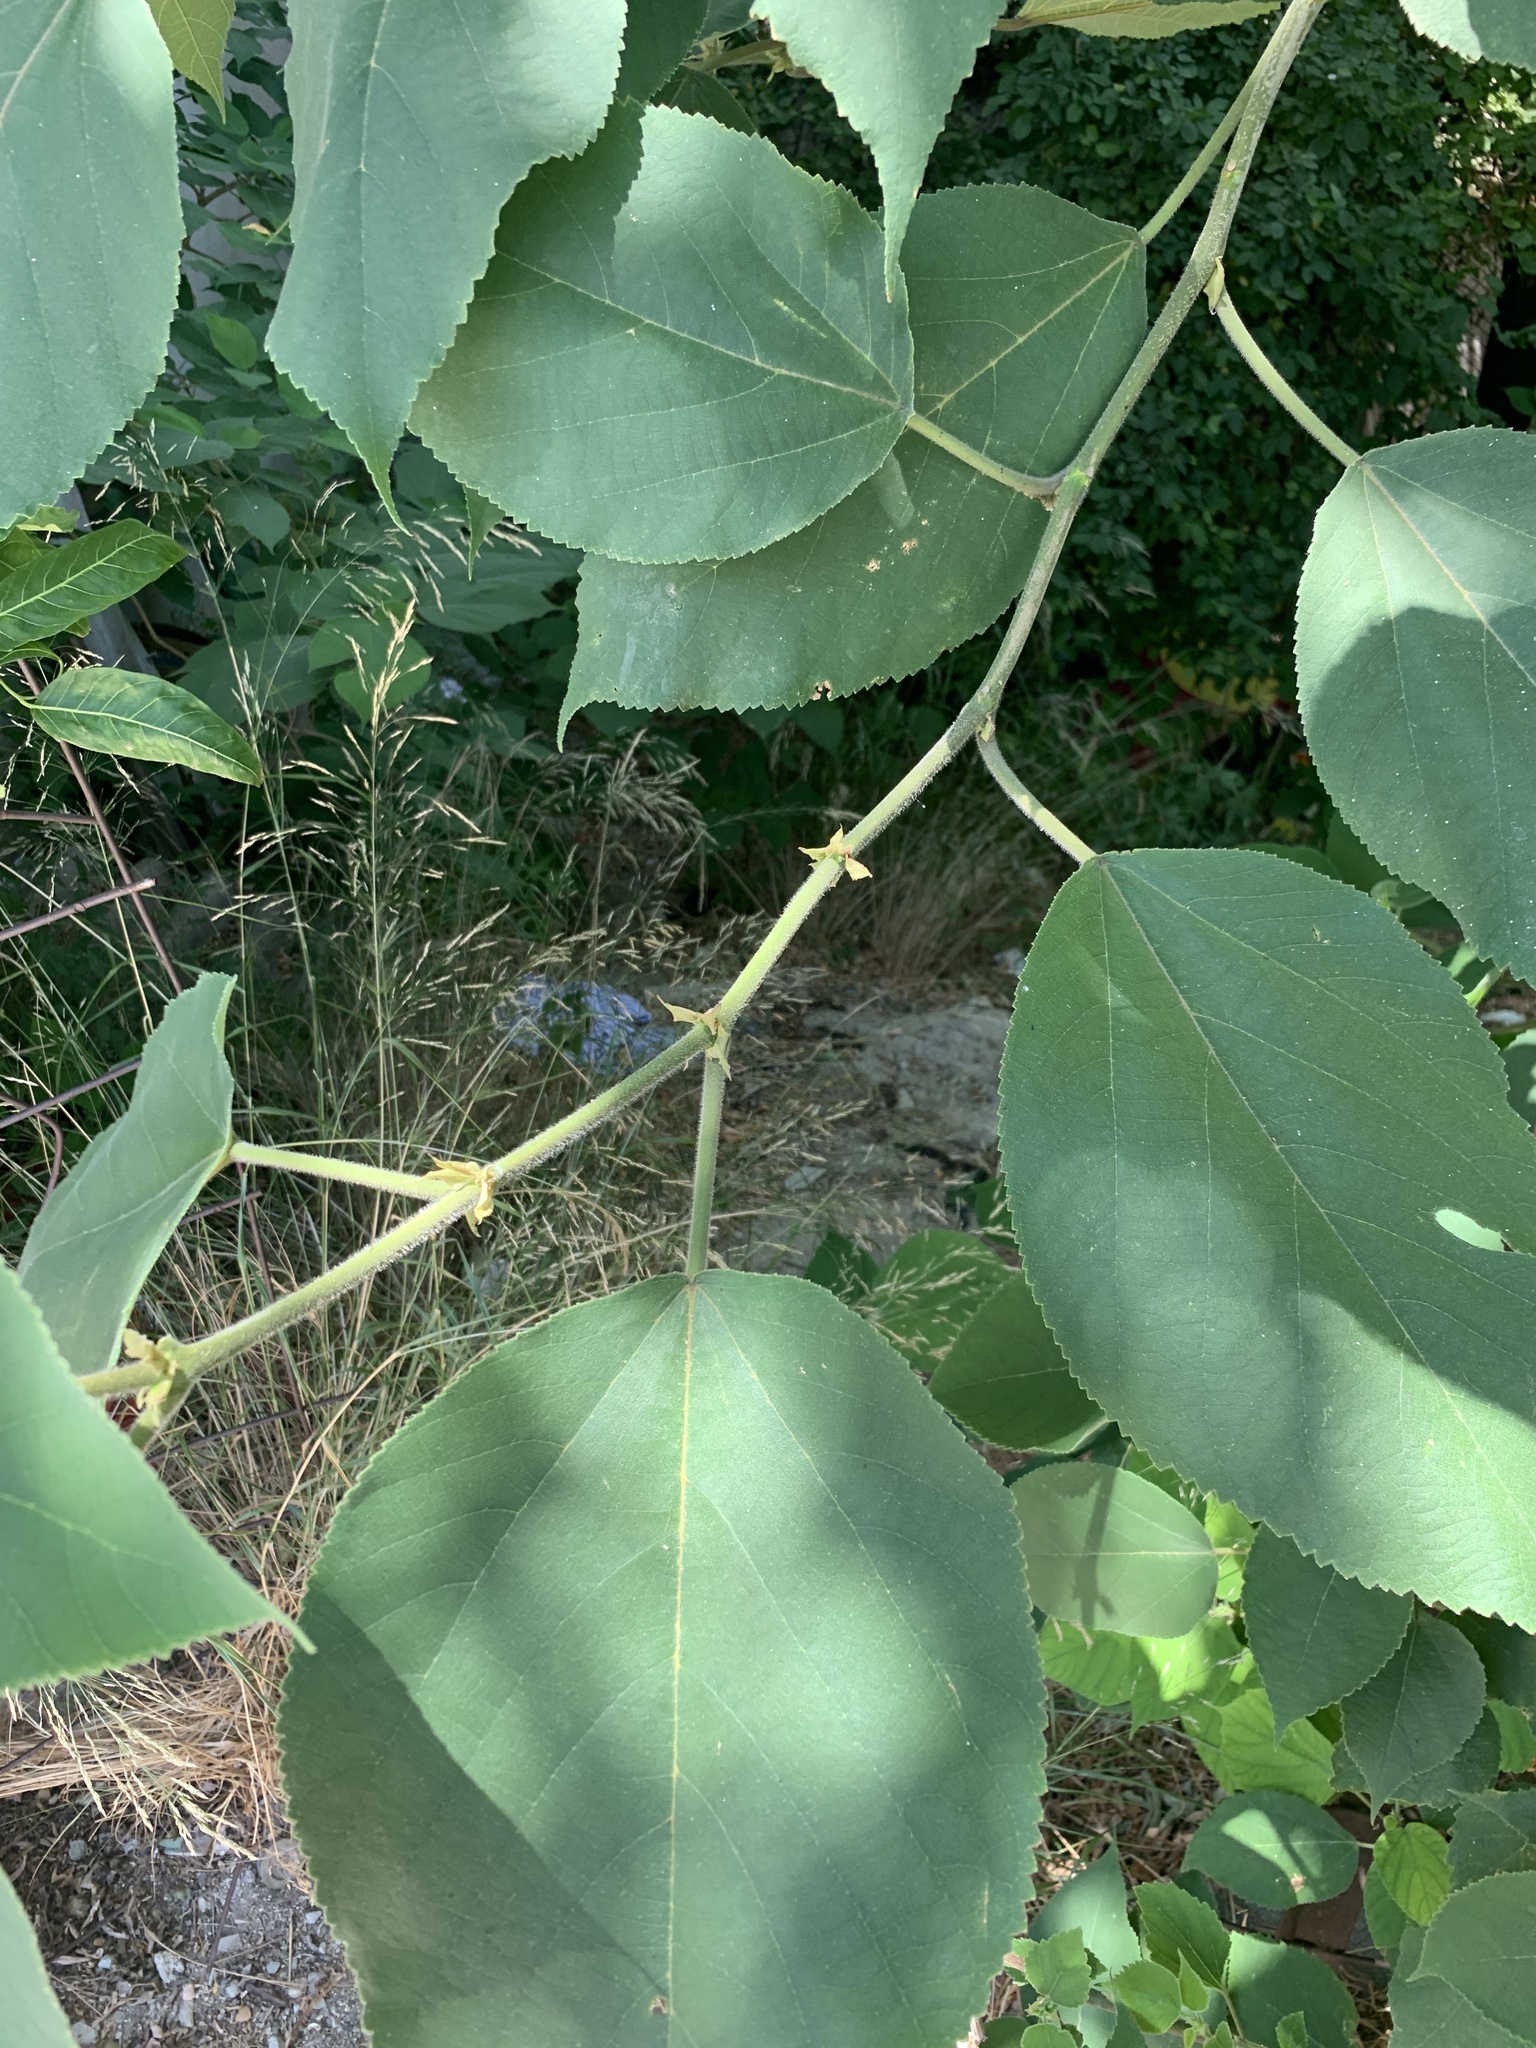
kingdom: Plantae
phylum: Tracheophyta
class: Magnoliopsida
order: Rosales
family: Moraceae
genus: Broussonetia
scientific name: Broussonetia papyrifera
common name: Paper mulberry
